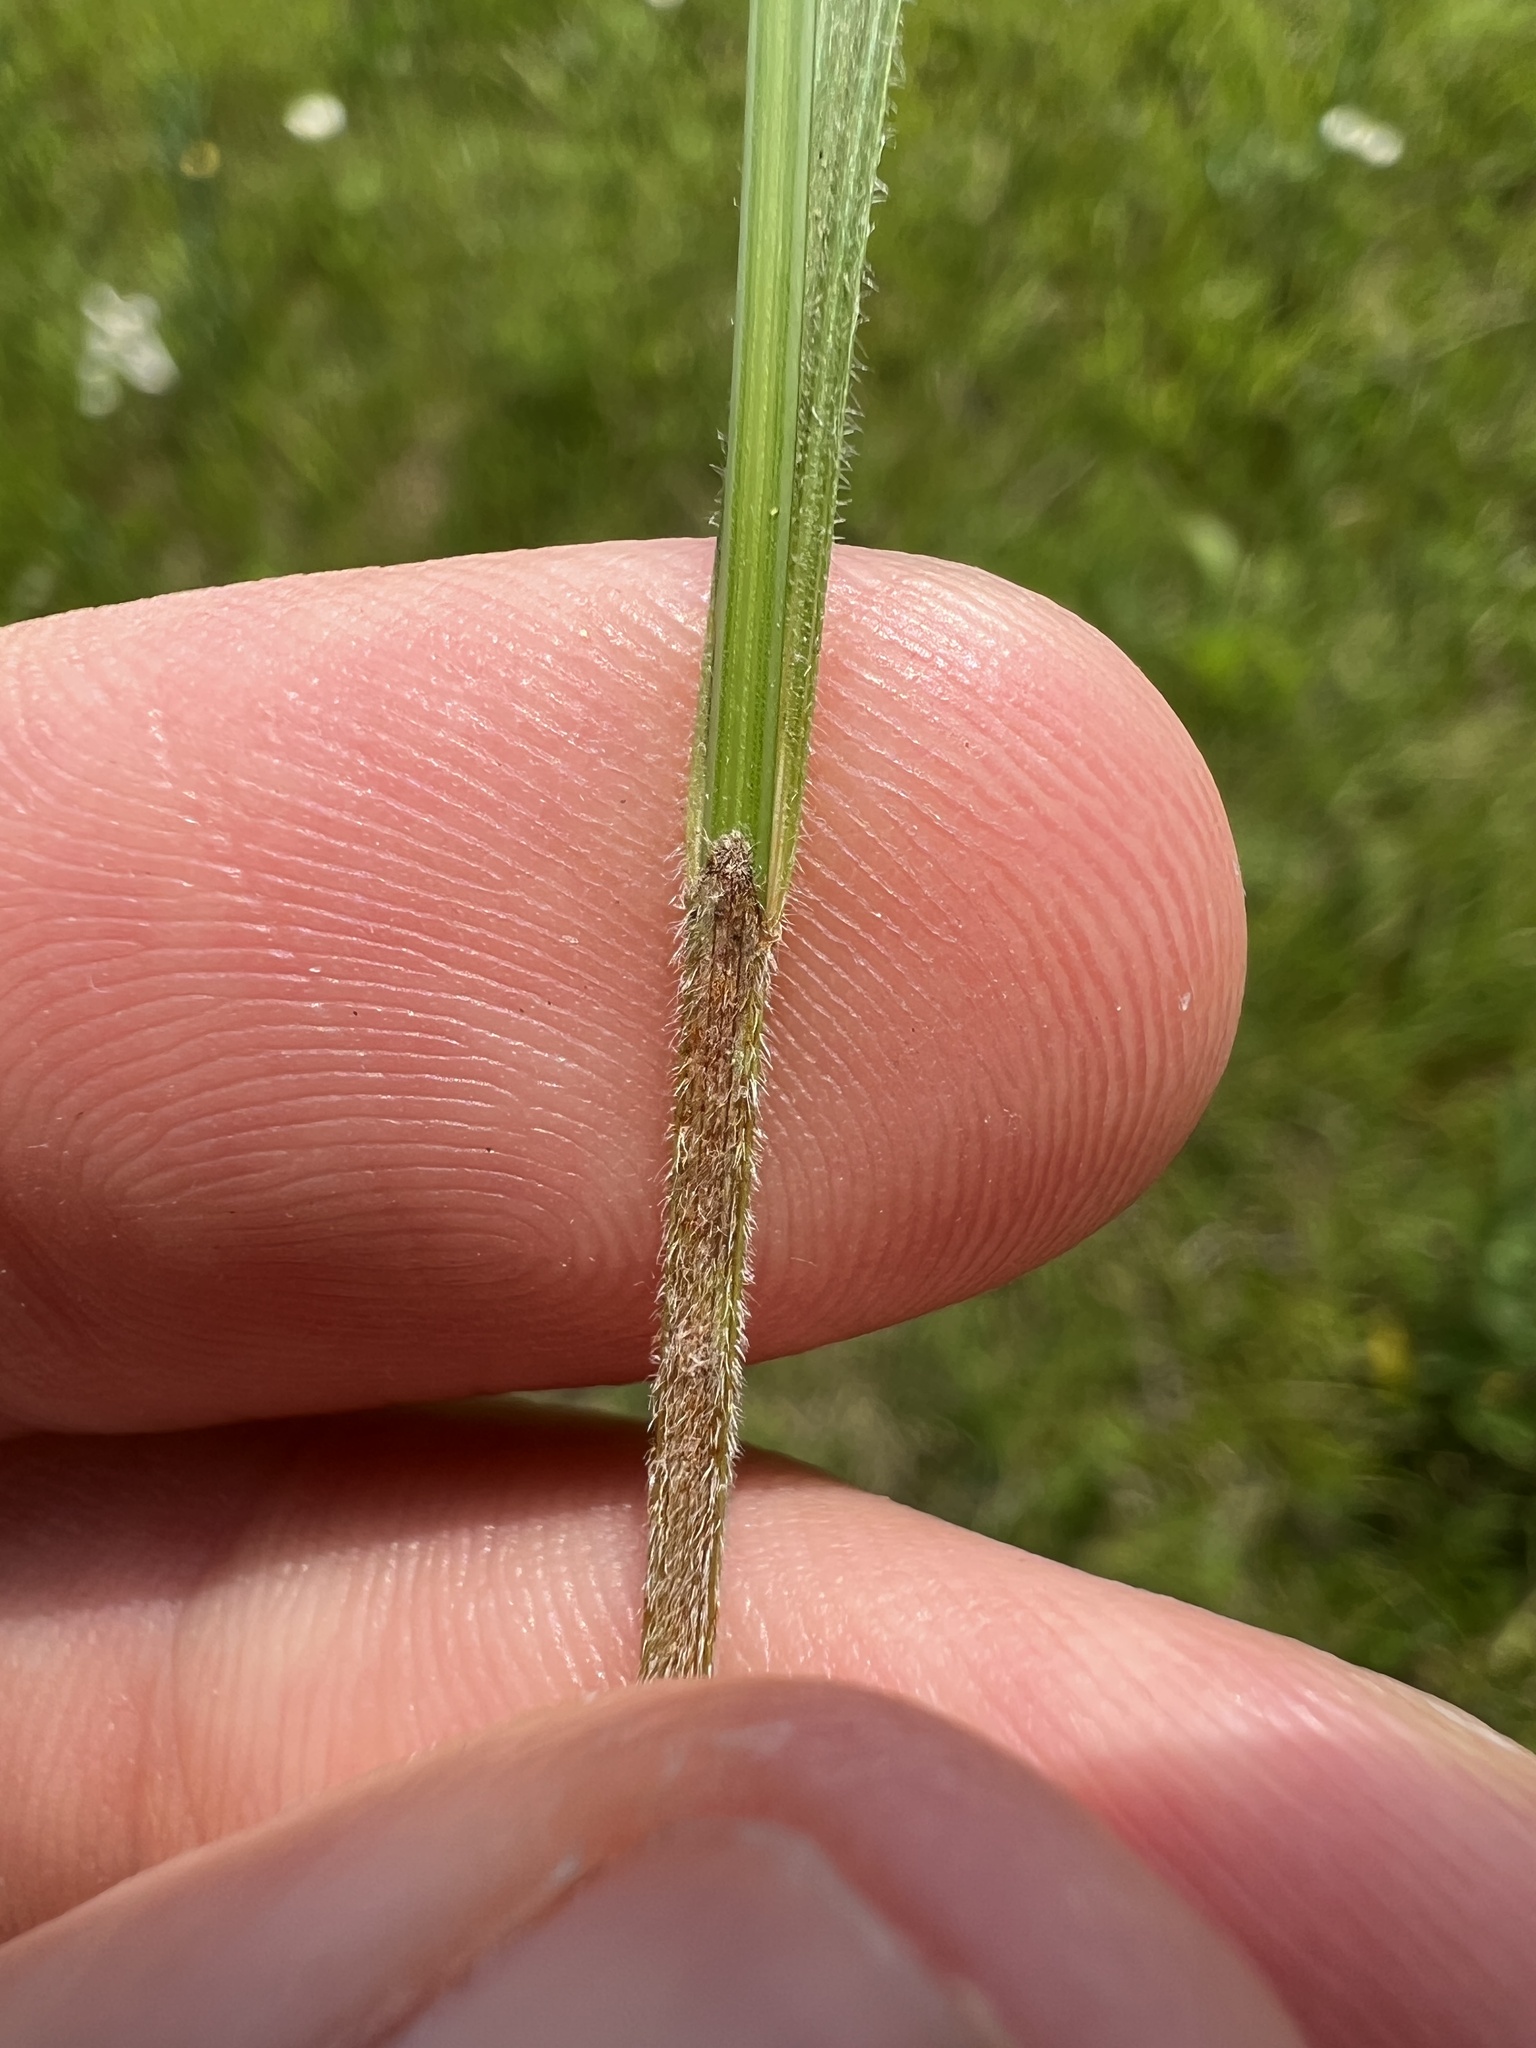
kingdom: Plantae
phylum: Tracheophyta
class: Liliopsida
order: Poales
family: Cyperaceae
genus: Scleria
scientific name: Scleria pauciflora
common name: Few-flowered nutrush
